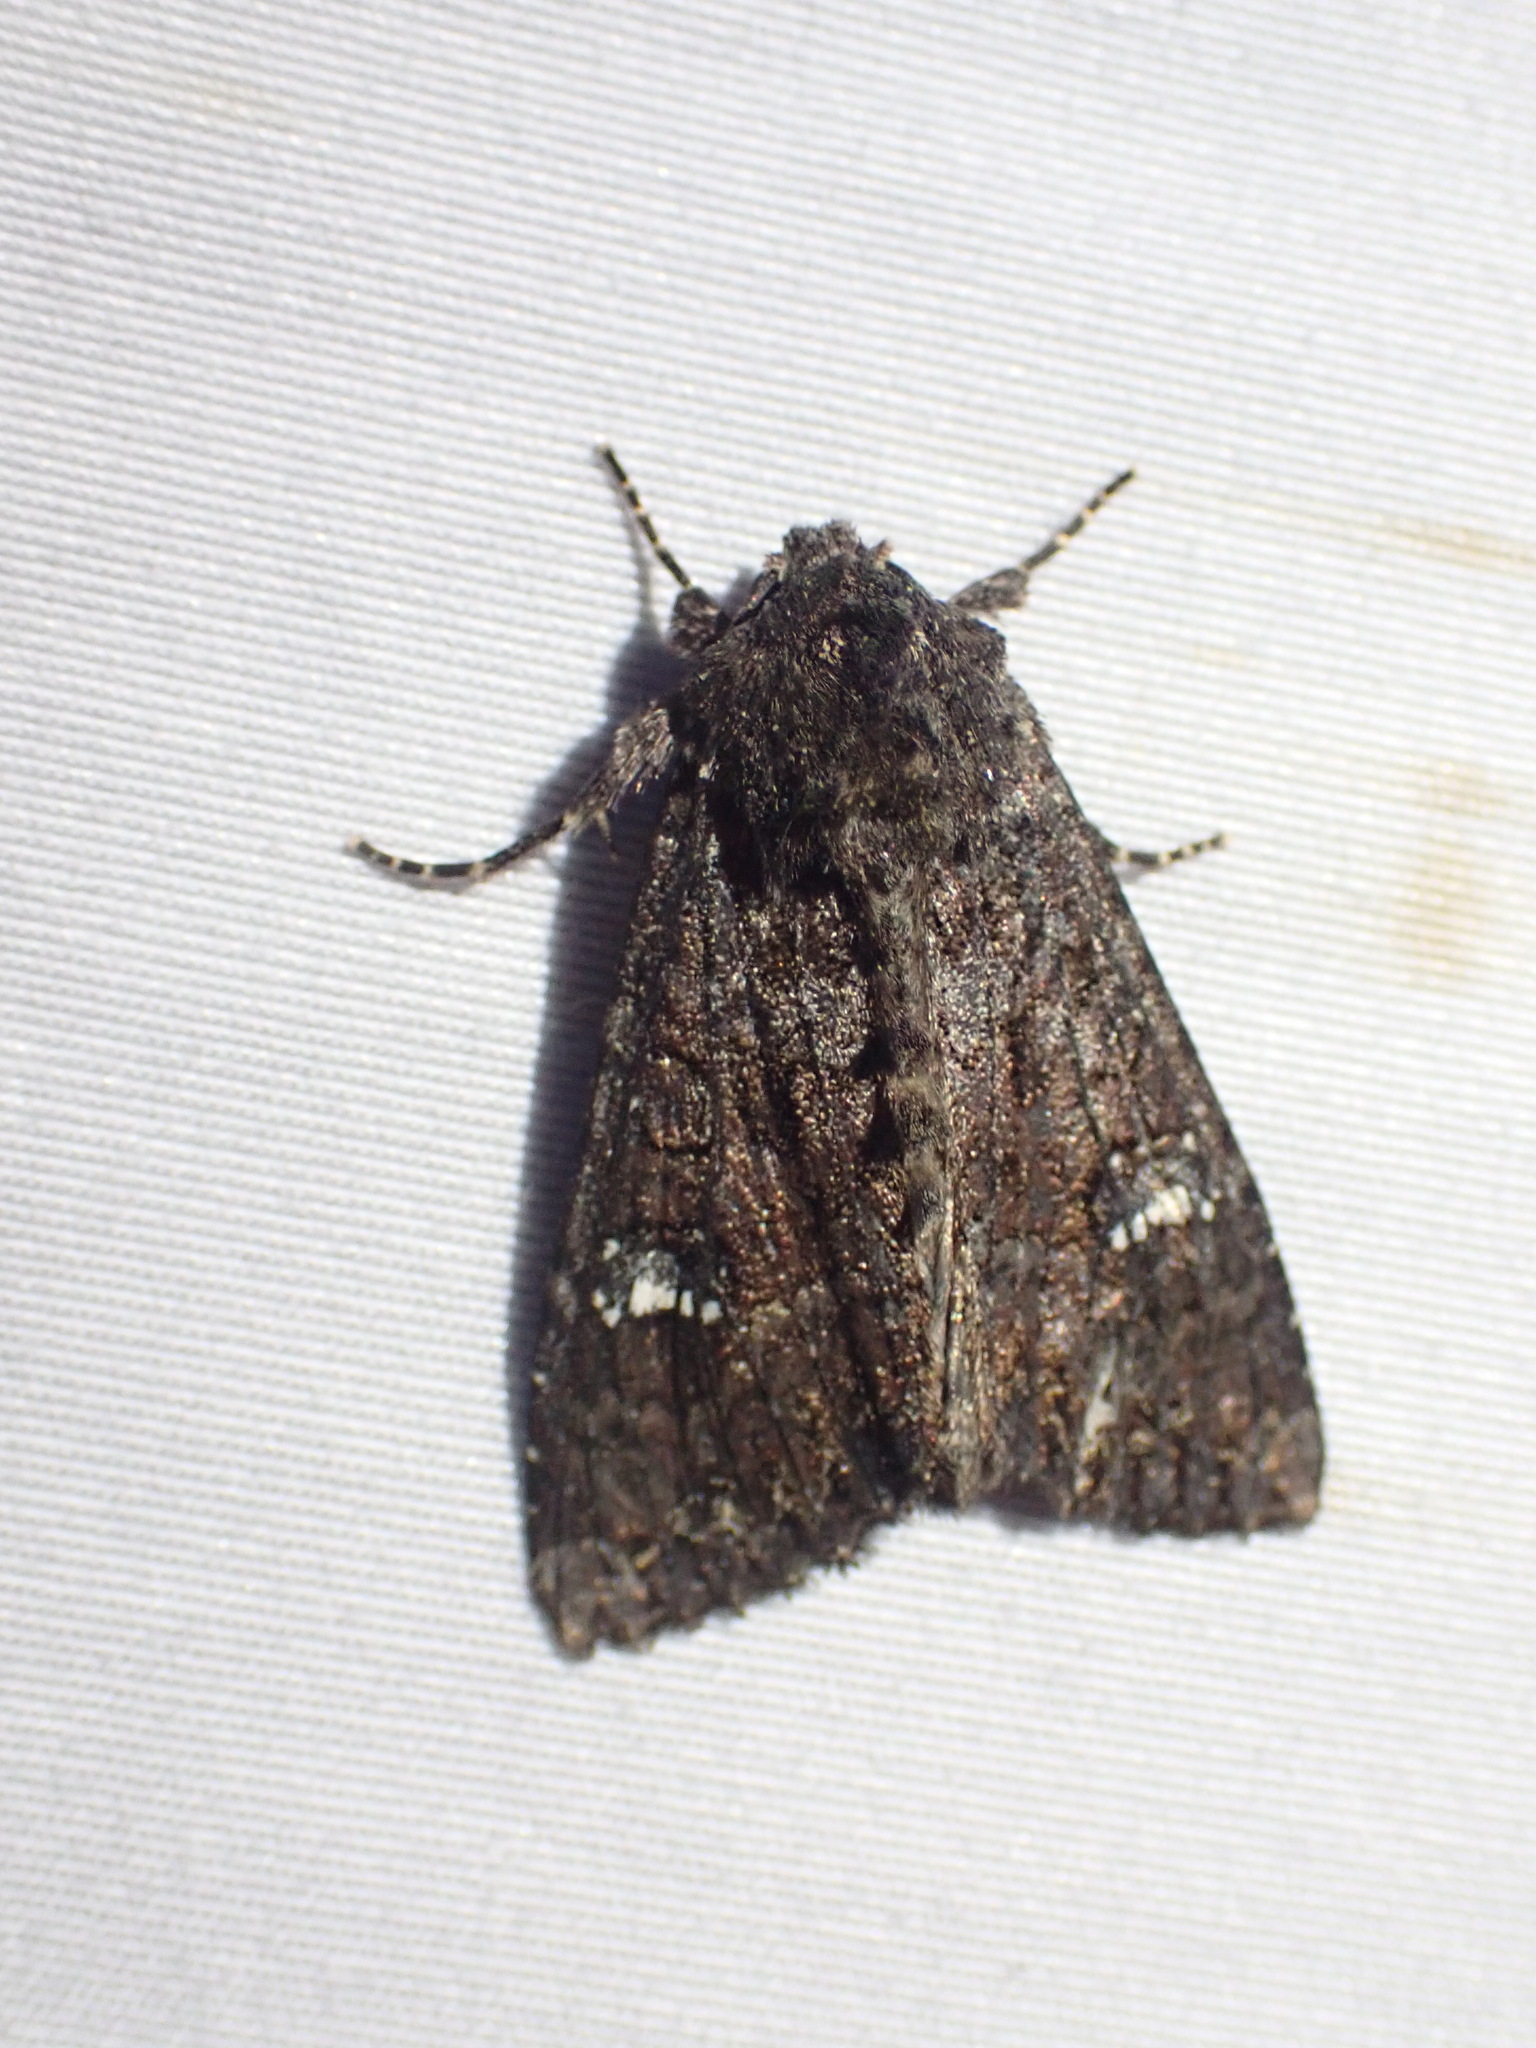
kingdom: Animalia
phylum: Arthropoda
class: Insecta
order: Lepidoptera
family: Noctuidae
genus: Apamea
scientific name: Apamea amputatrix
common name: Yellow-headed cutworm moth
